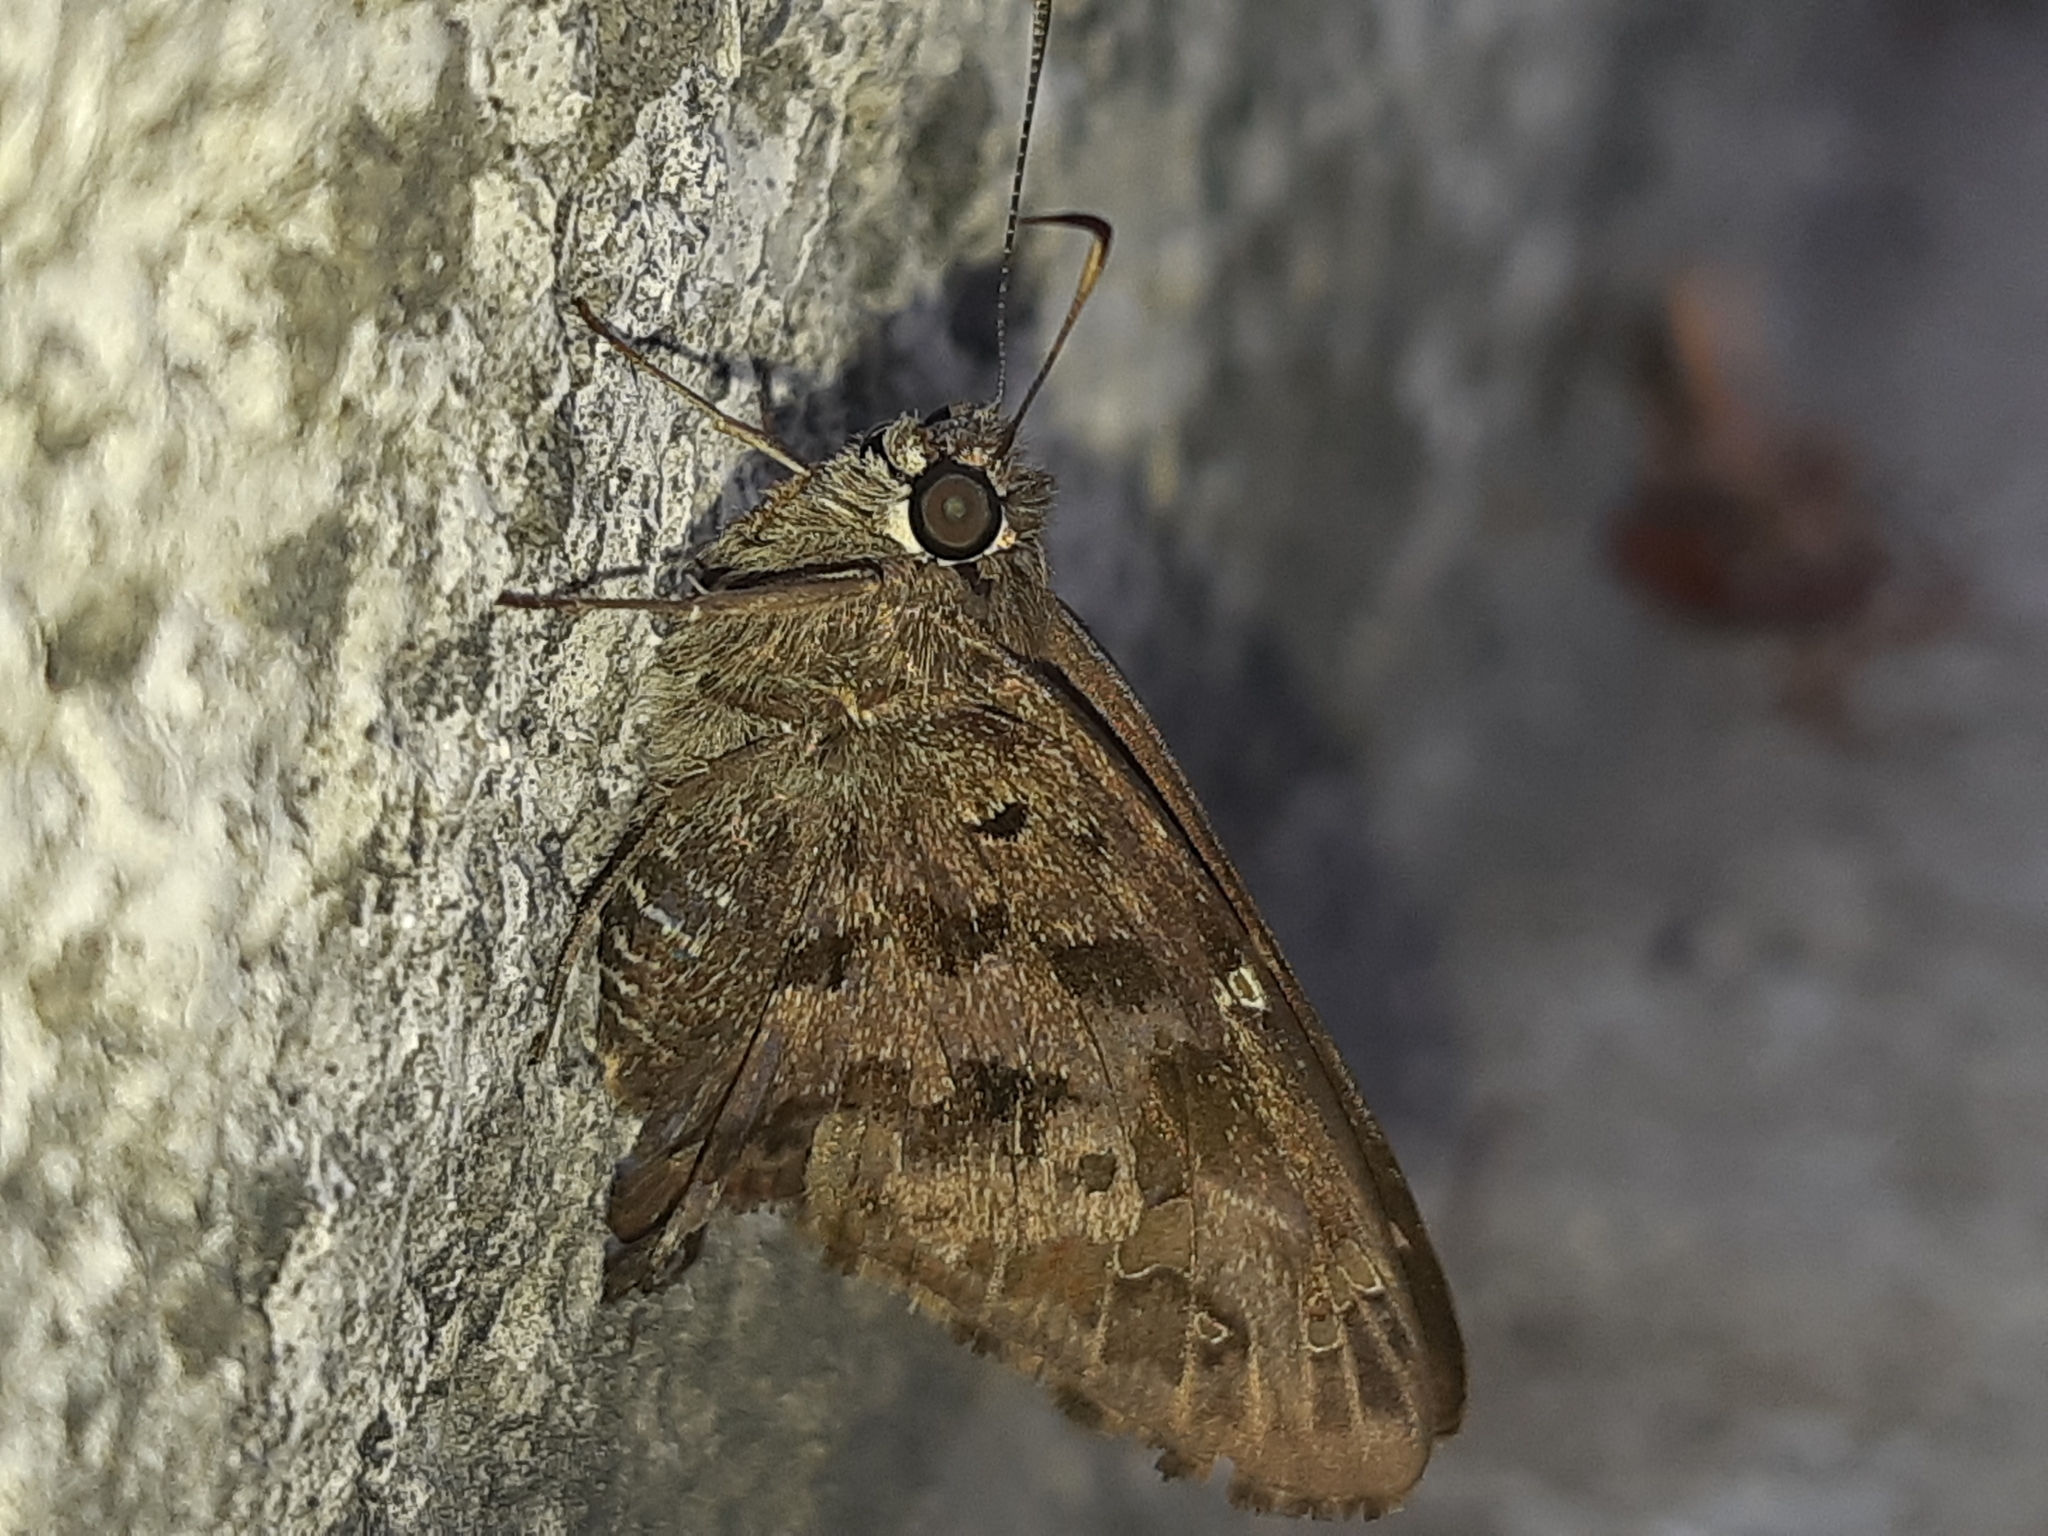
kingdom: Animalia
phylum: Arthropoda
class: Insecta
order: Lepidoptera
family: Hesperiidae
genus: Thorybes
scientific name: Thorybes
